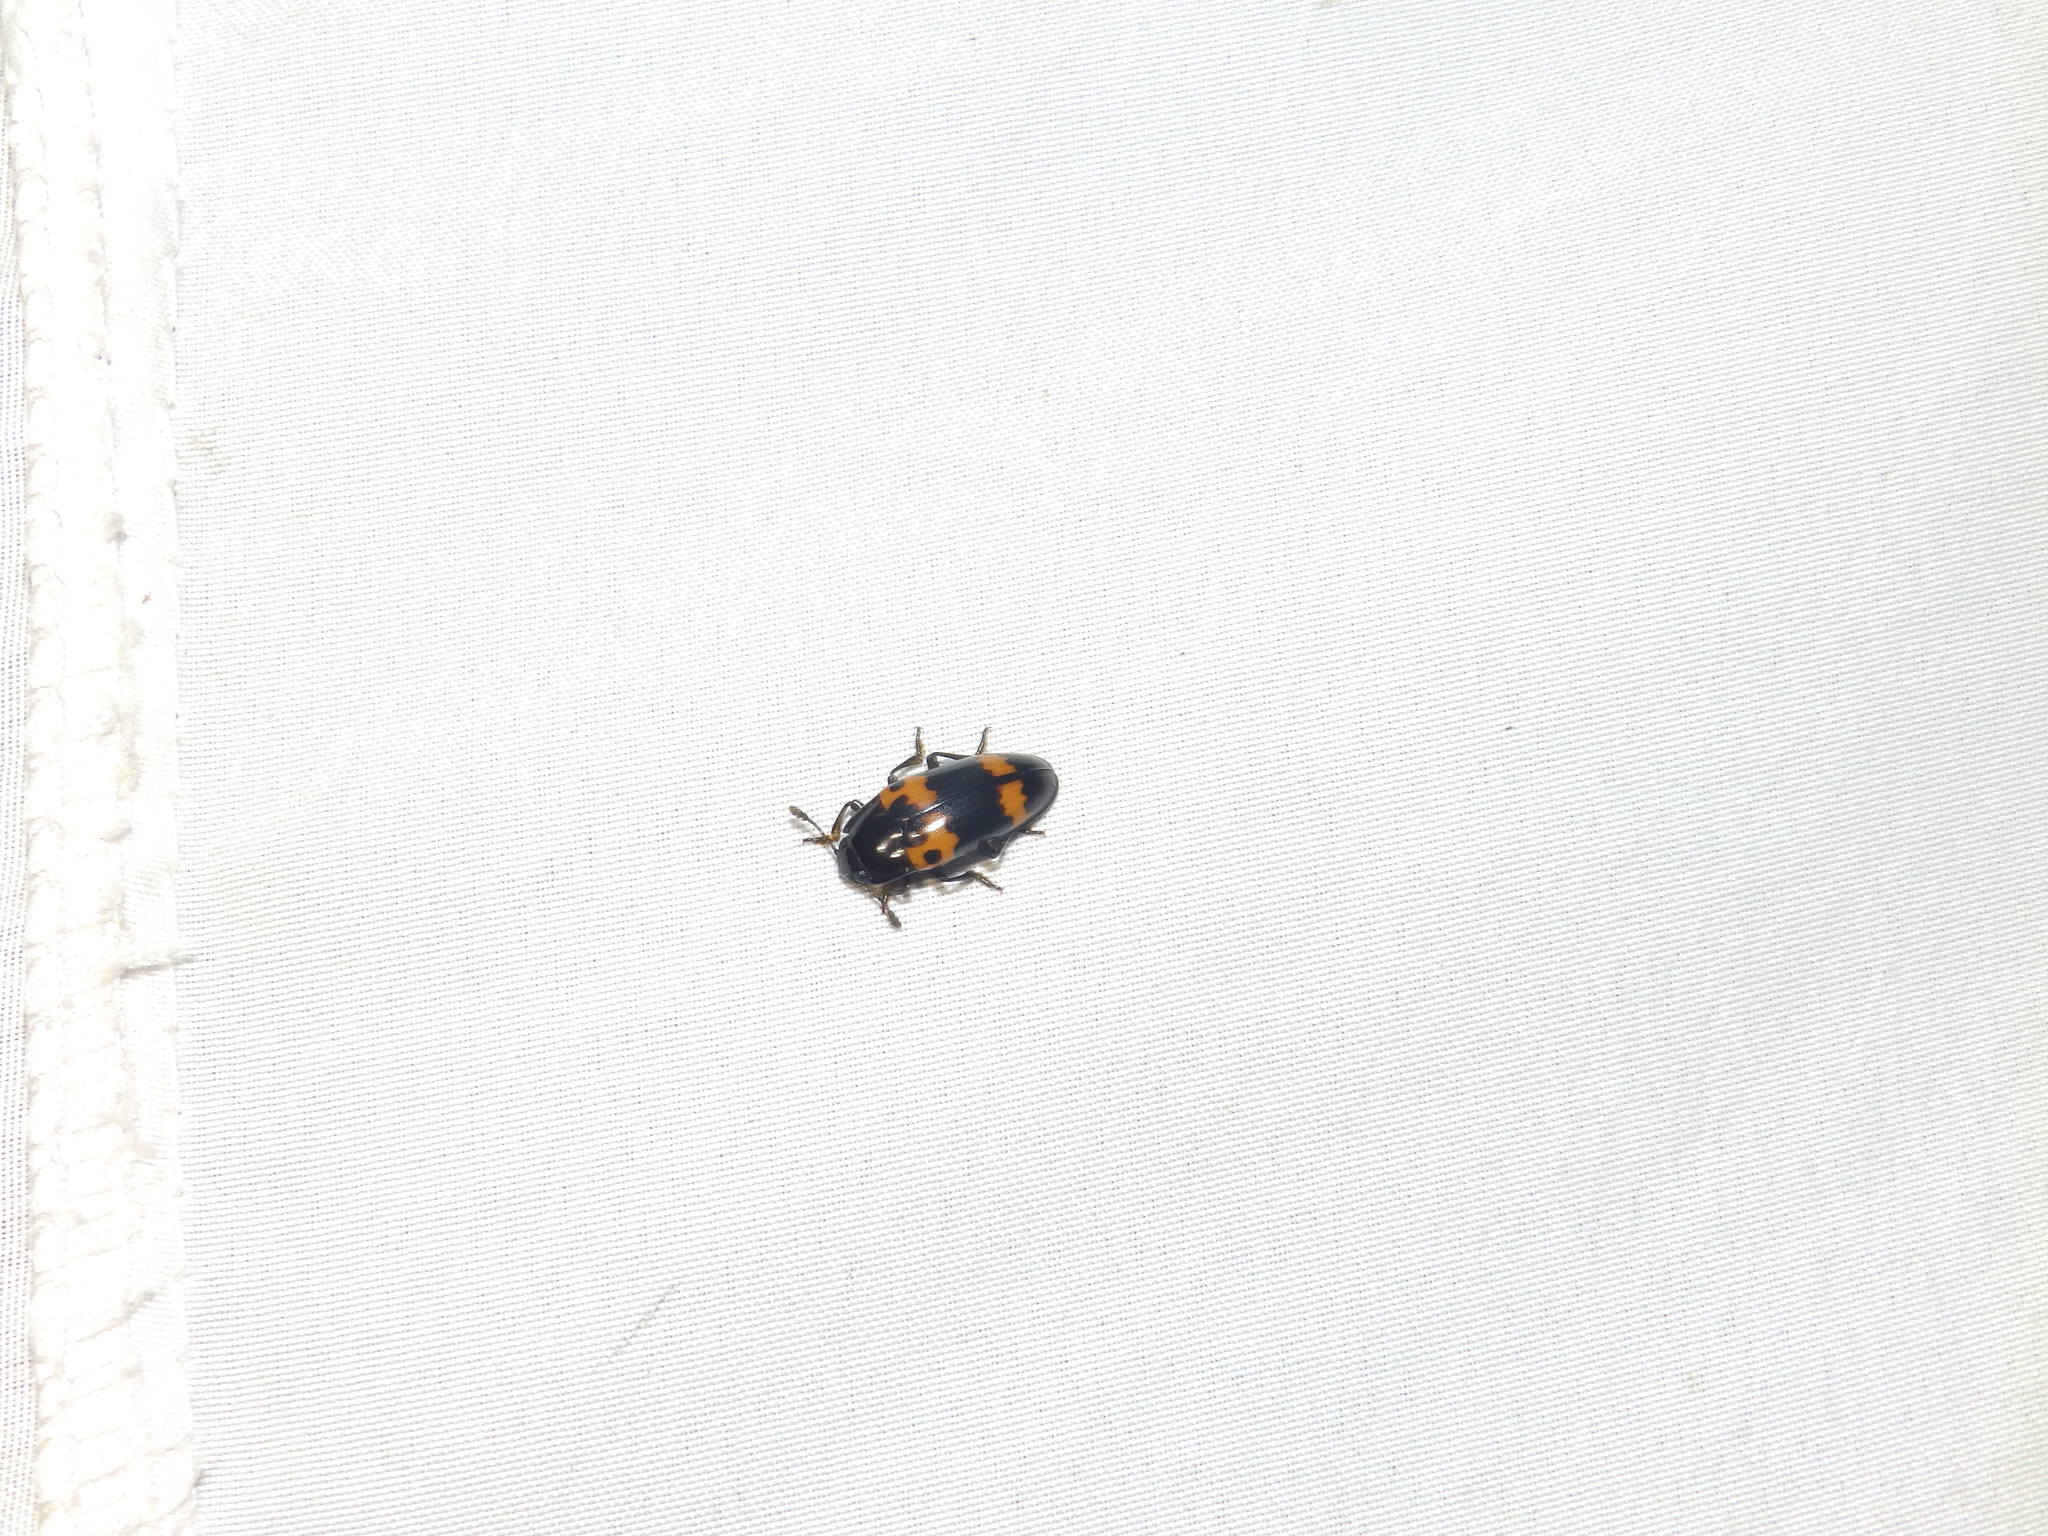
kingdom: Animalia
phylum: Arthropoda
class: Insecta
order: Coleoptera
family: Erotylidae
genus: Megalodacne
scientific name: Megalodacne fasciata
